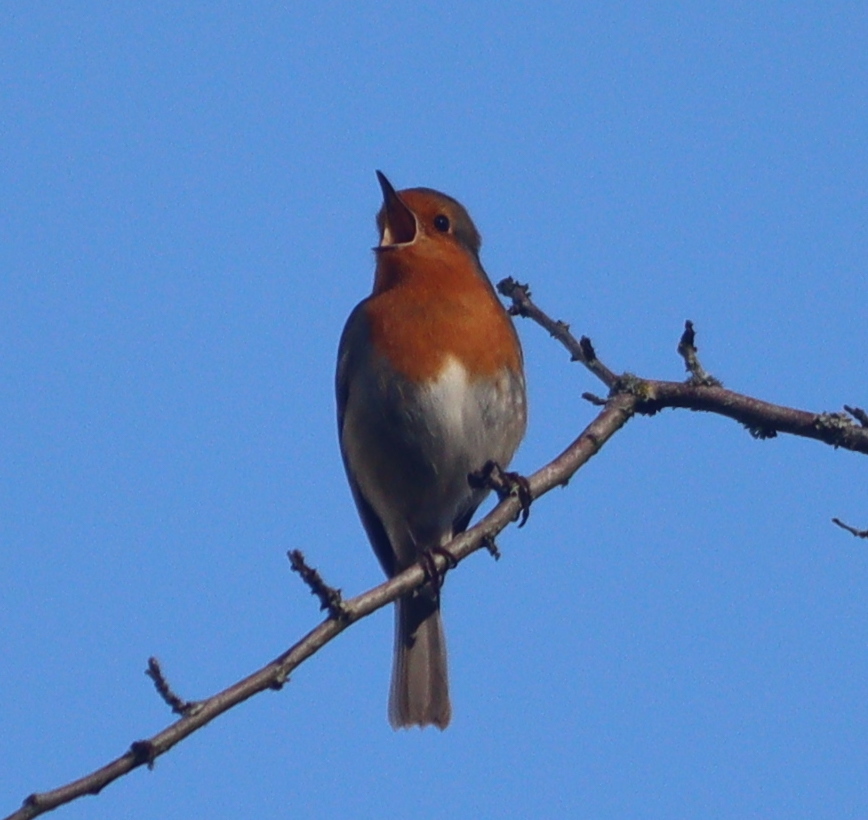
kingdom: Animalia
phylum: Chordata
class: Aves
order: Passeriformes
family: Muscicapidae
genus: Erithacus
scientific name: Erithacus rubecula
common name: European robin
